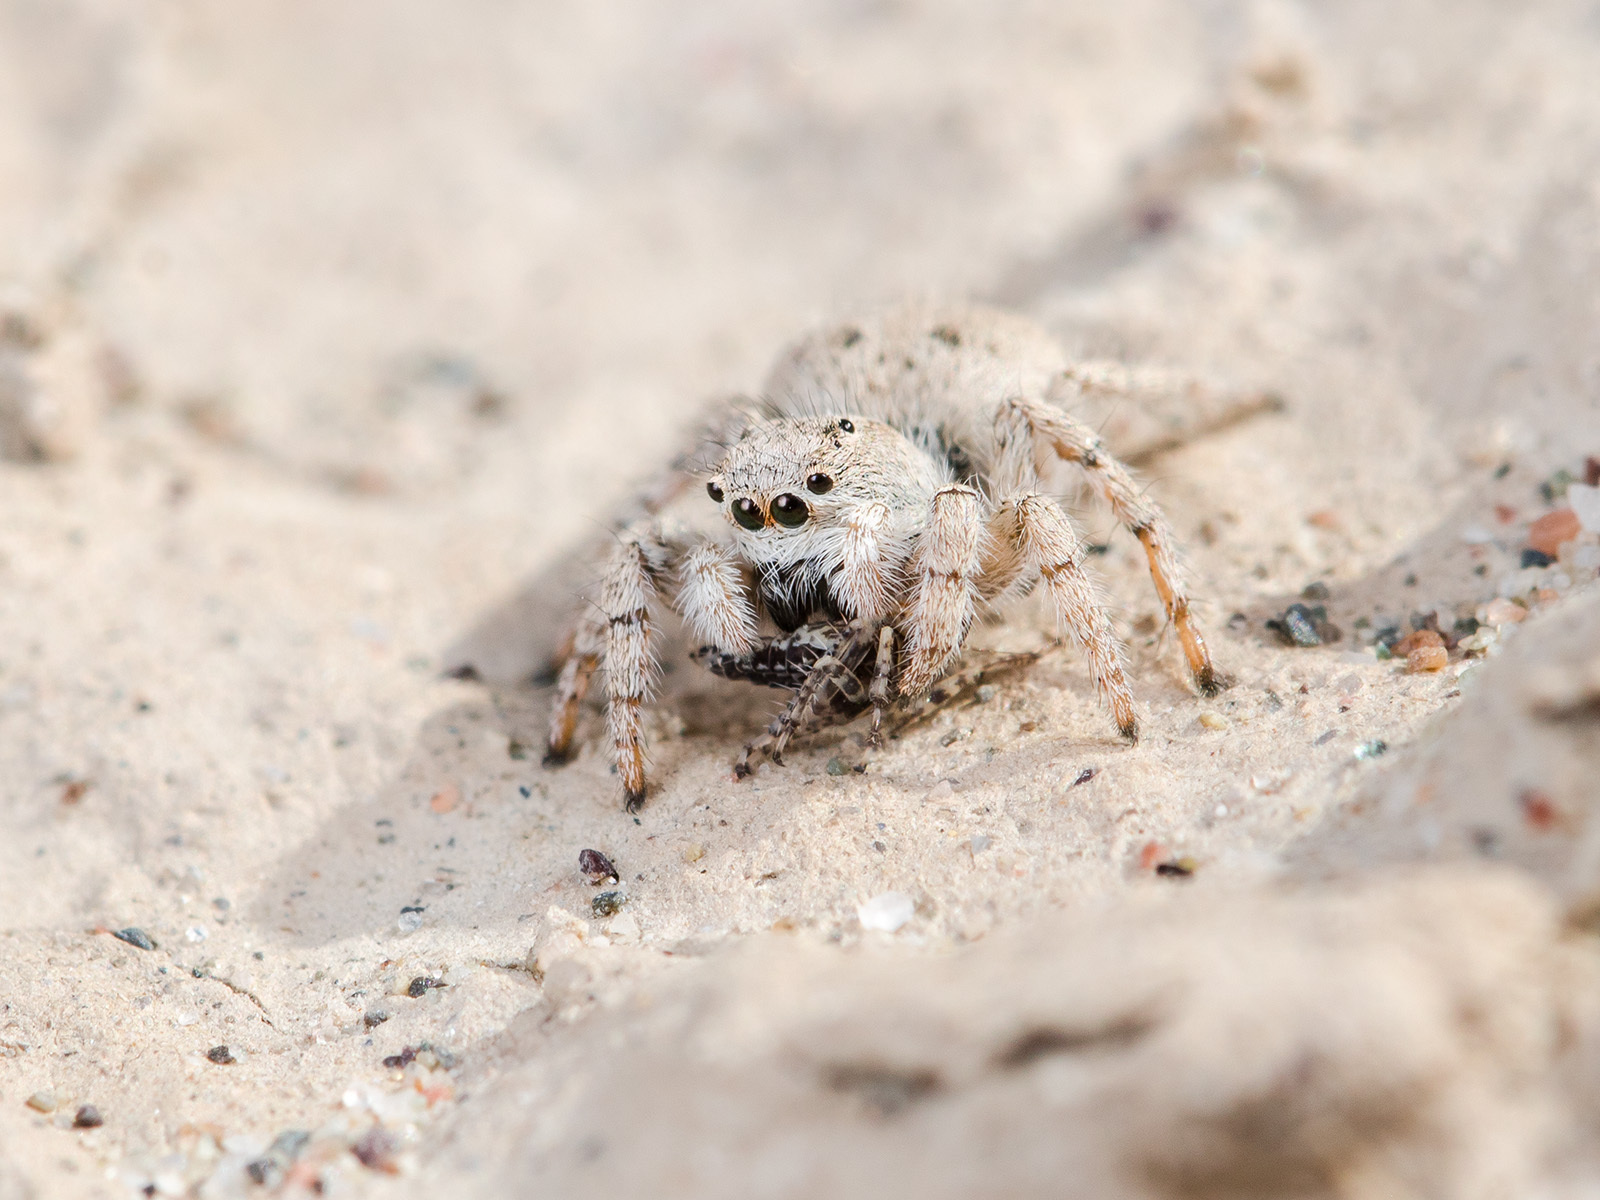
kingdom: Animalia
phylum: Arthropoda
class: Arachnida
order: Araneae
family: Salticidae
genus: Aelurillus
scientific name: Aelurillus concolor
